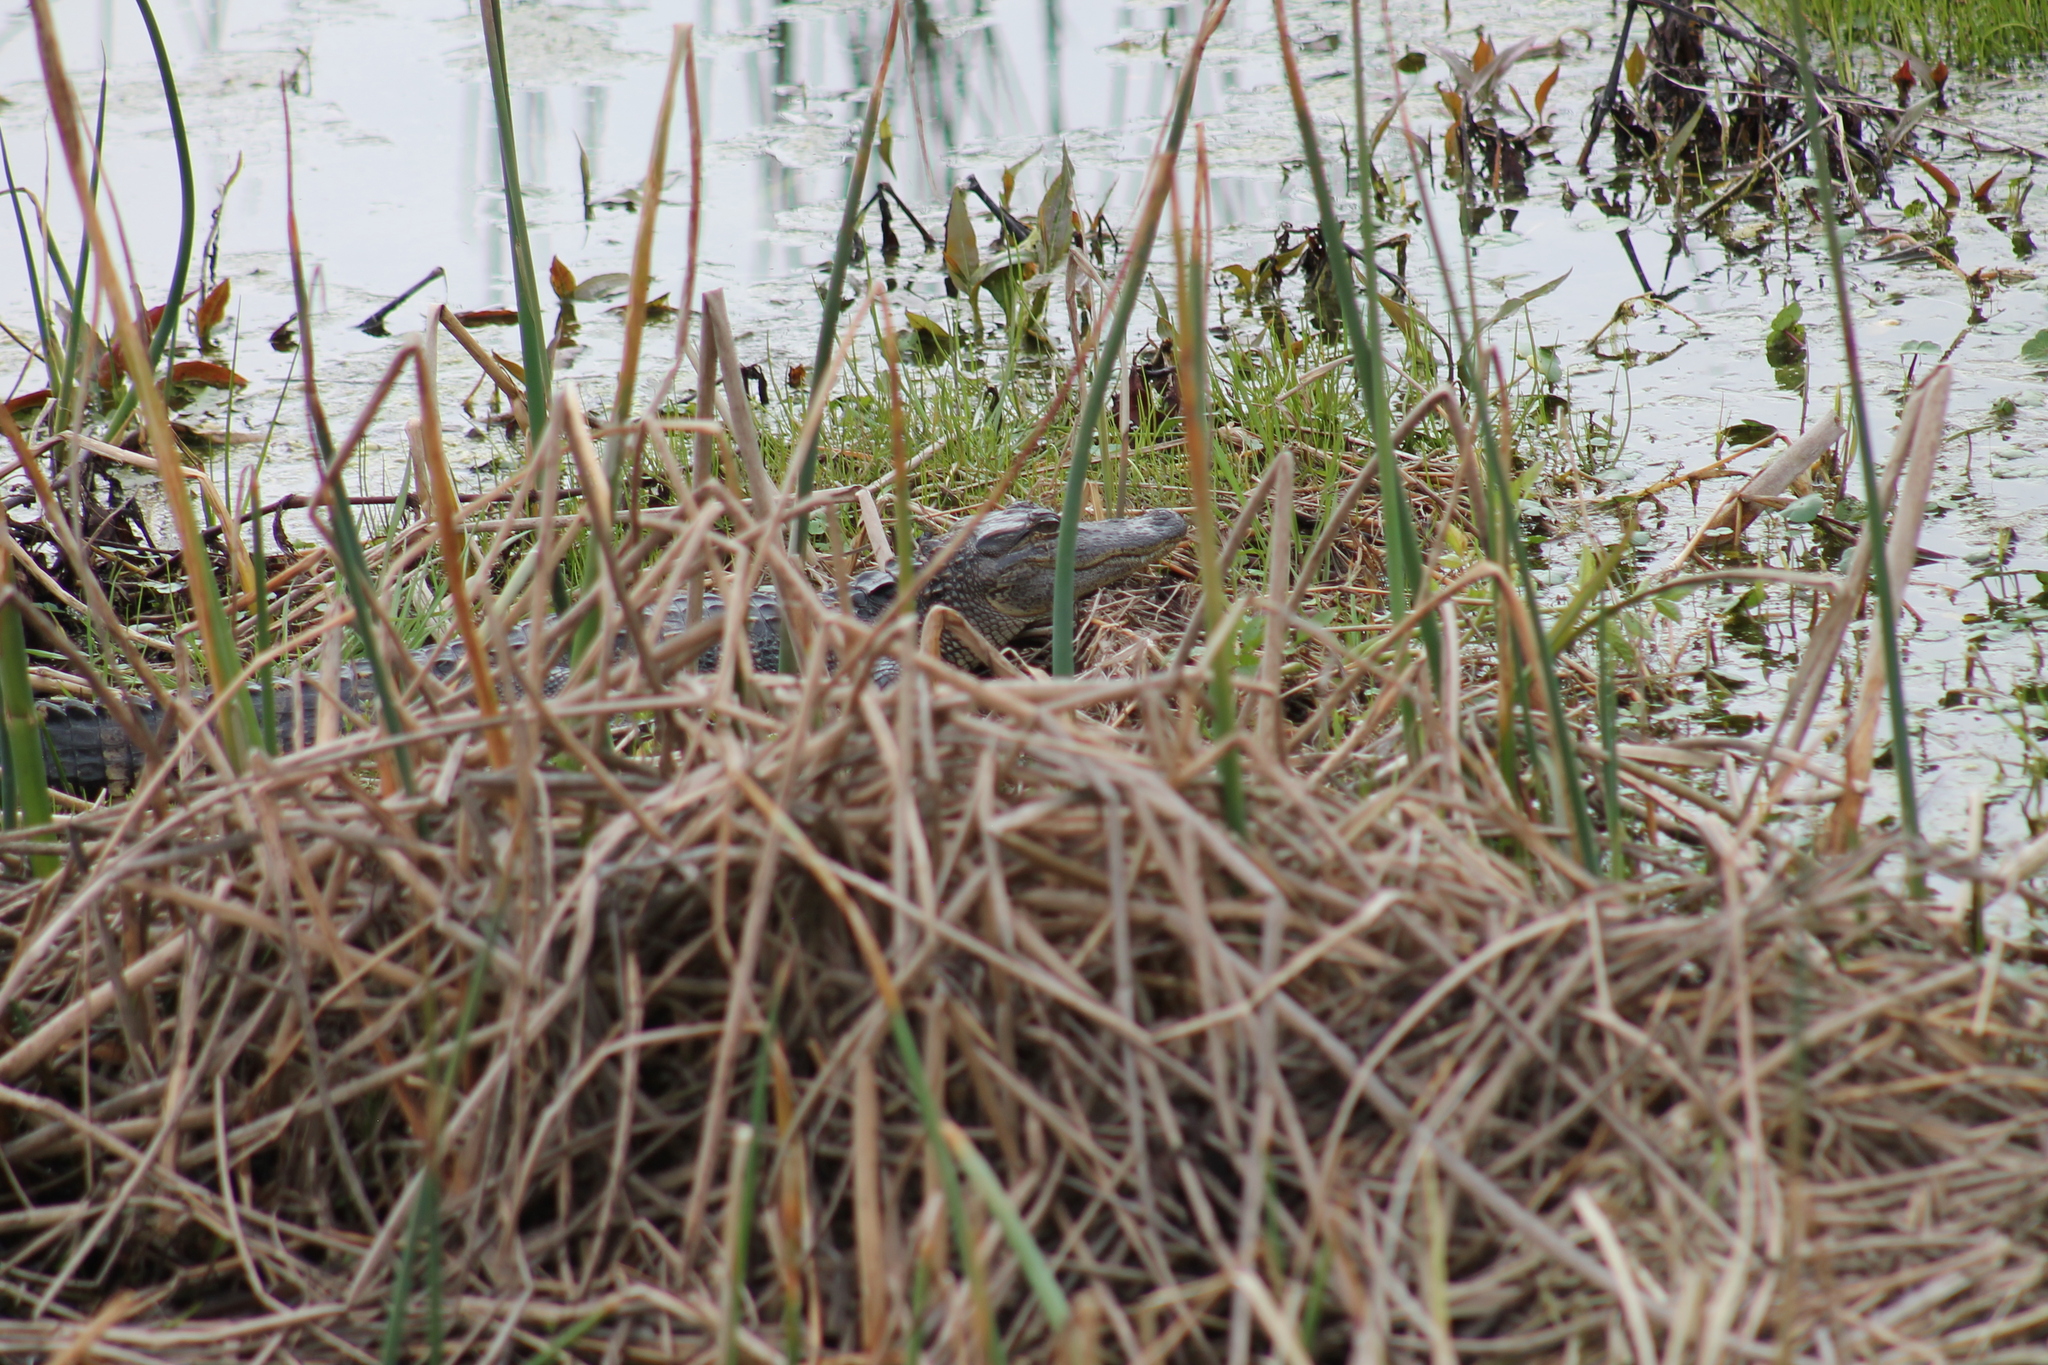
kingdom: Animalia
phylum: Chordata
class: Crocodylia
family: Alligatoridae
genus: Alligator
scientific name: Alligator mississippiensis
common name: American alligator
